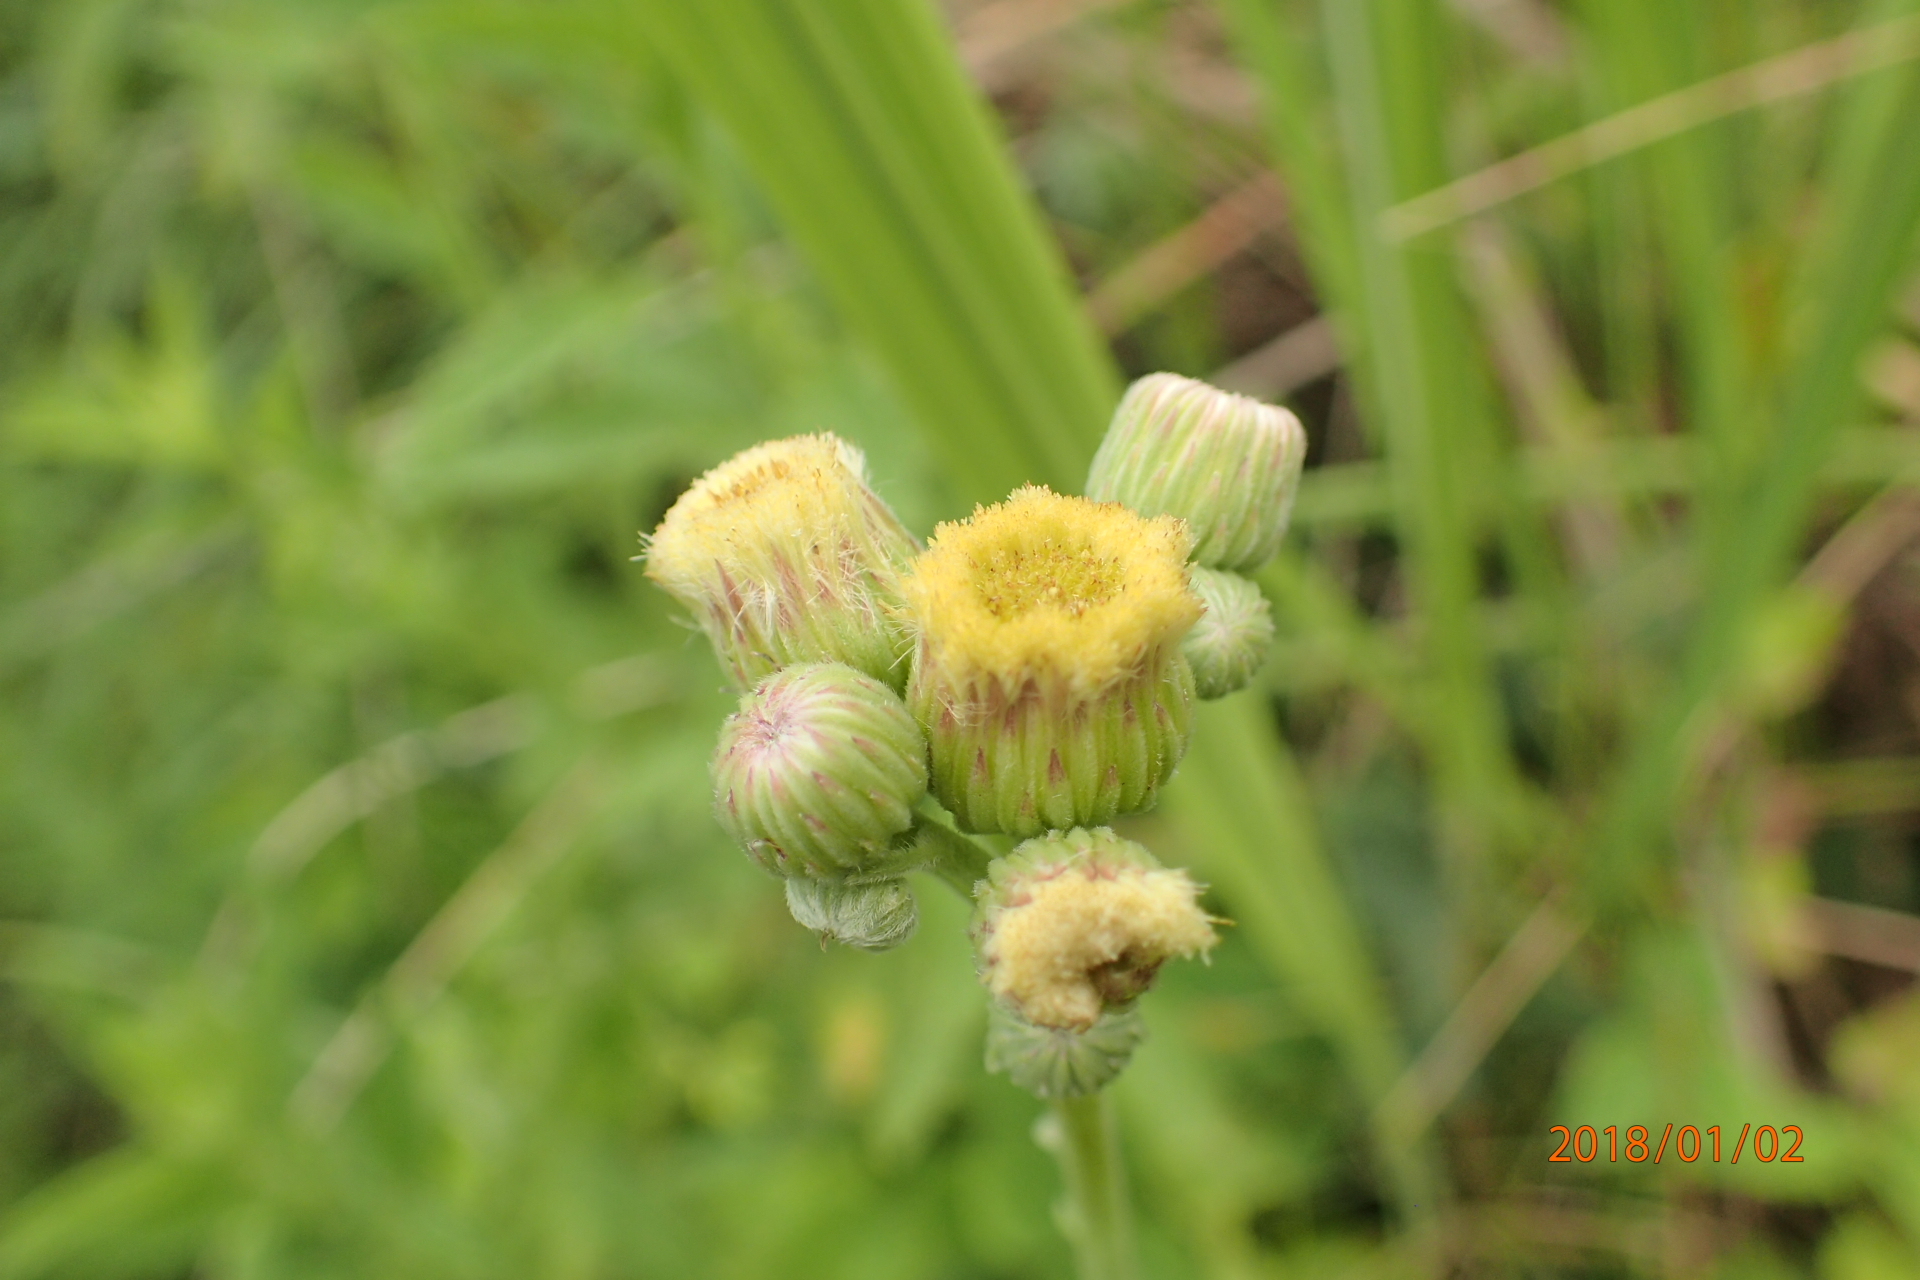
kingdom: Plantae
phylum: Tracheophyta
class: Magnoliopsida
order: Asterales
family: Asteraceae
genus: Erigeron
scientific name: Erigeron primulifolius
